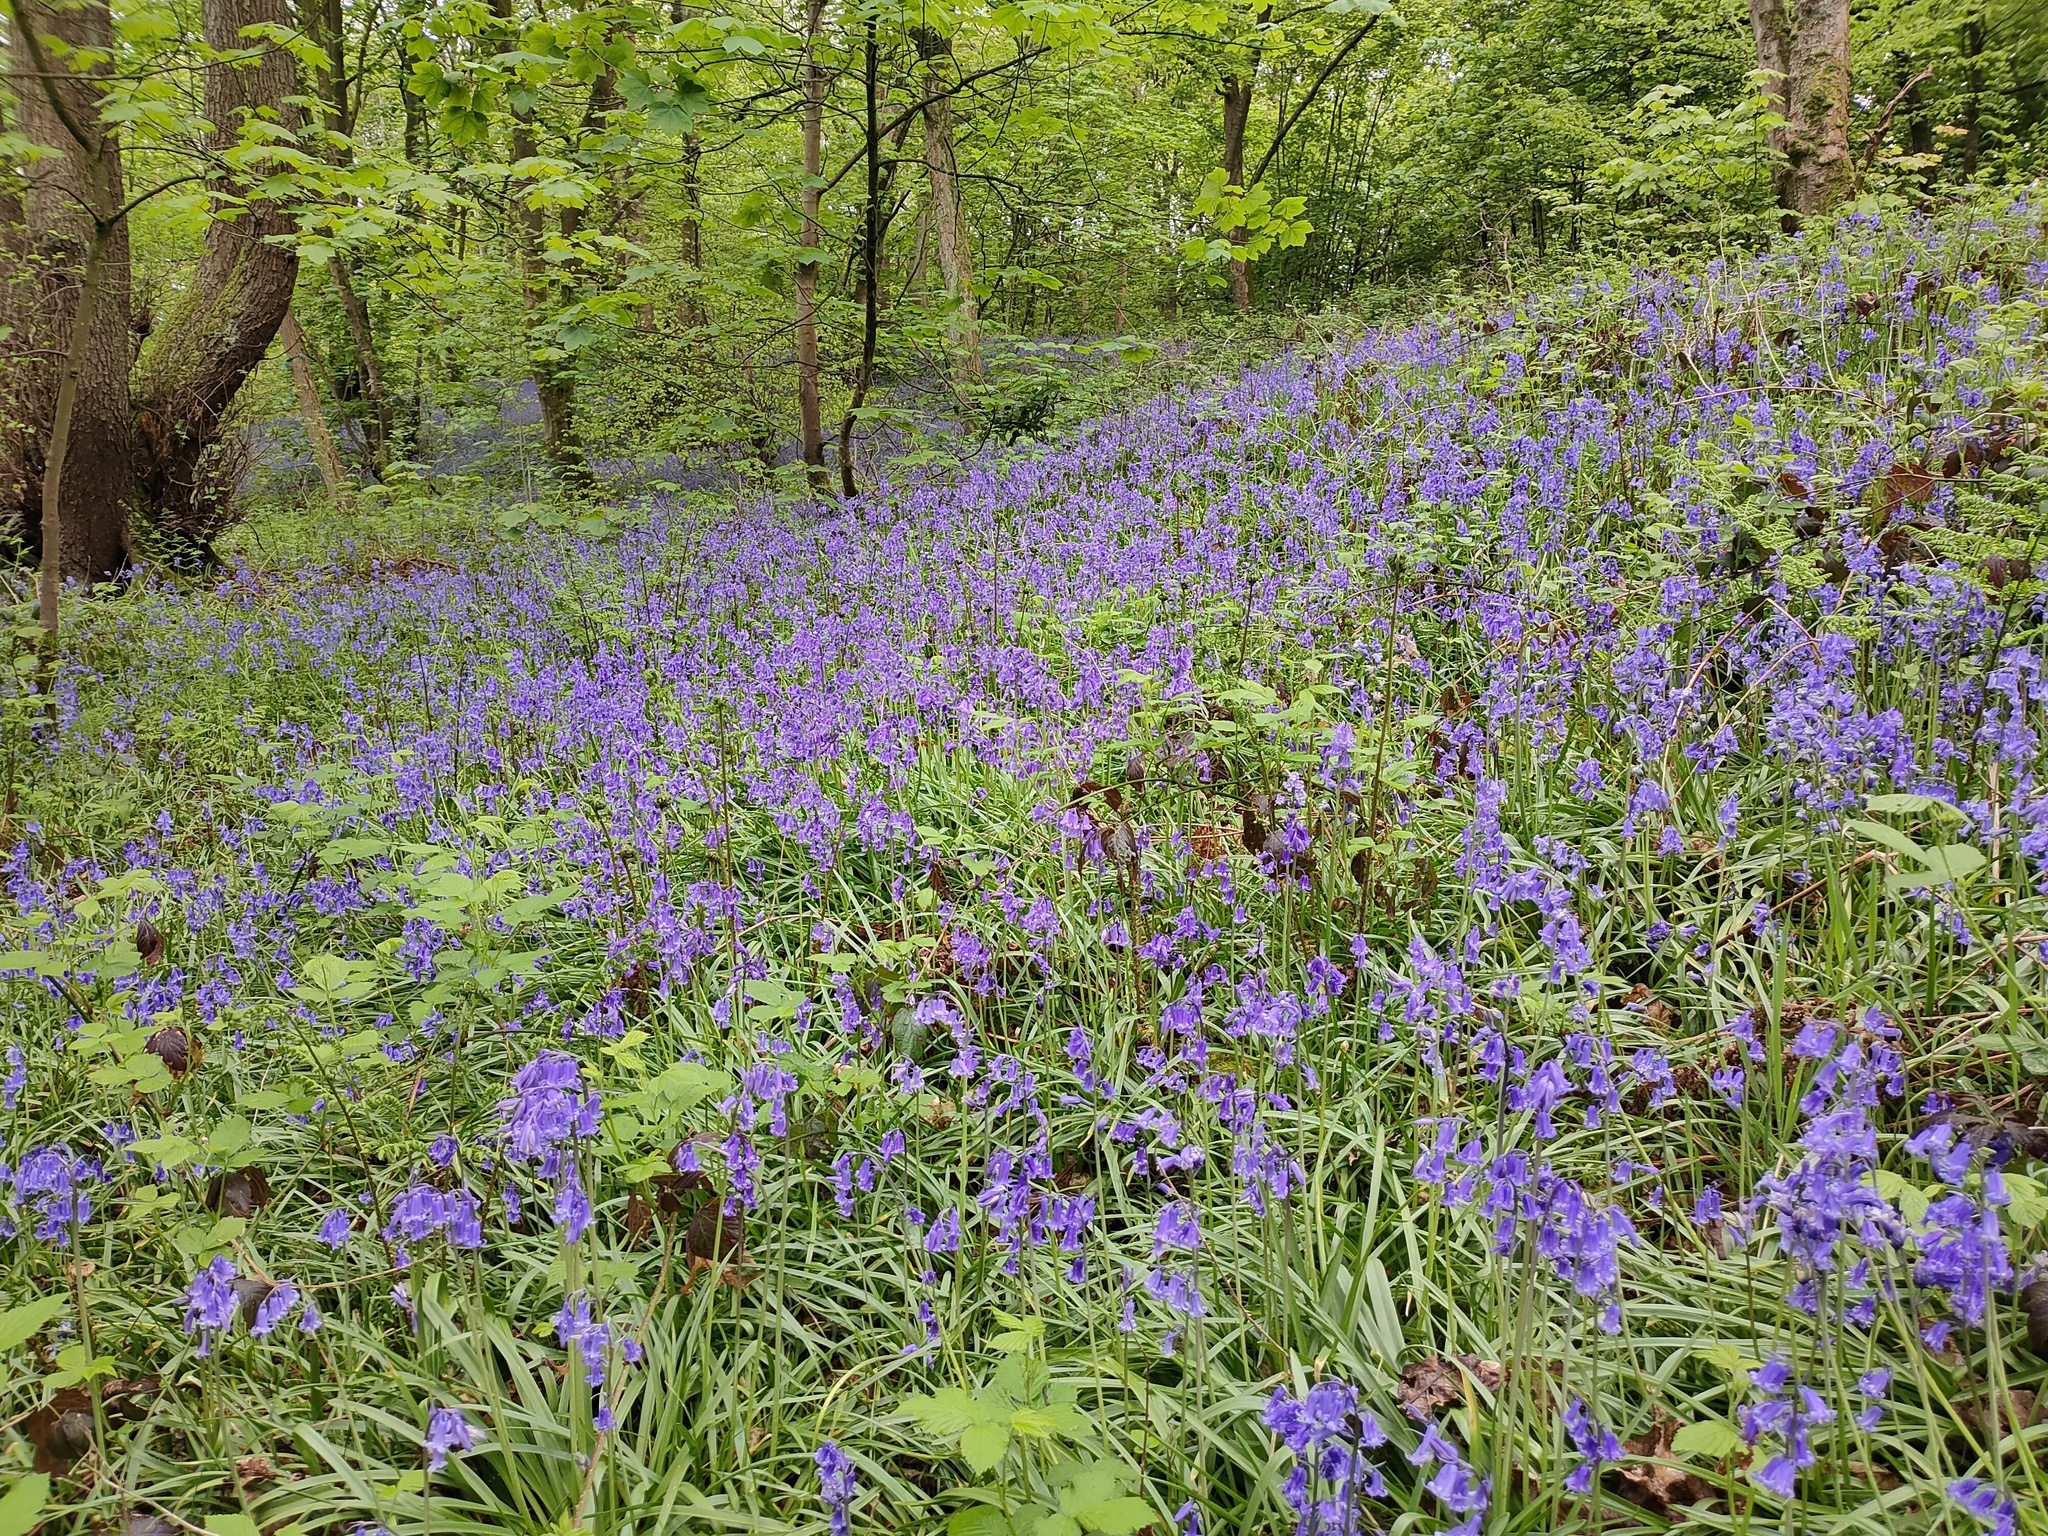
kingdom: Plantae
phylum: Tracheophyta
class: Liliopsida
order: Asparagales
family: Asparagaceae
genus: Hyacinthoides
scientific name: Hyacinthoides non-scripta
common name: Bluebell
